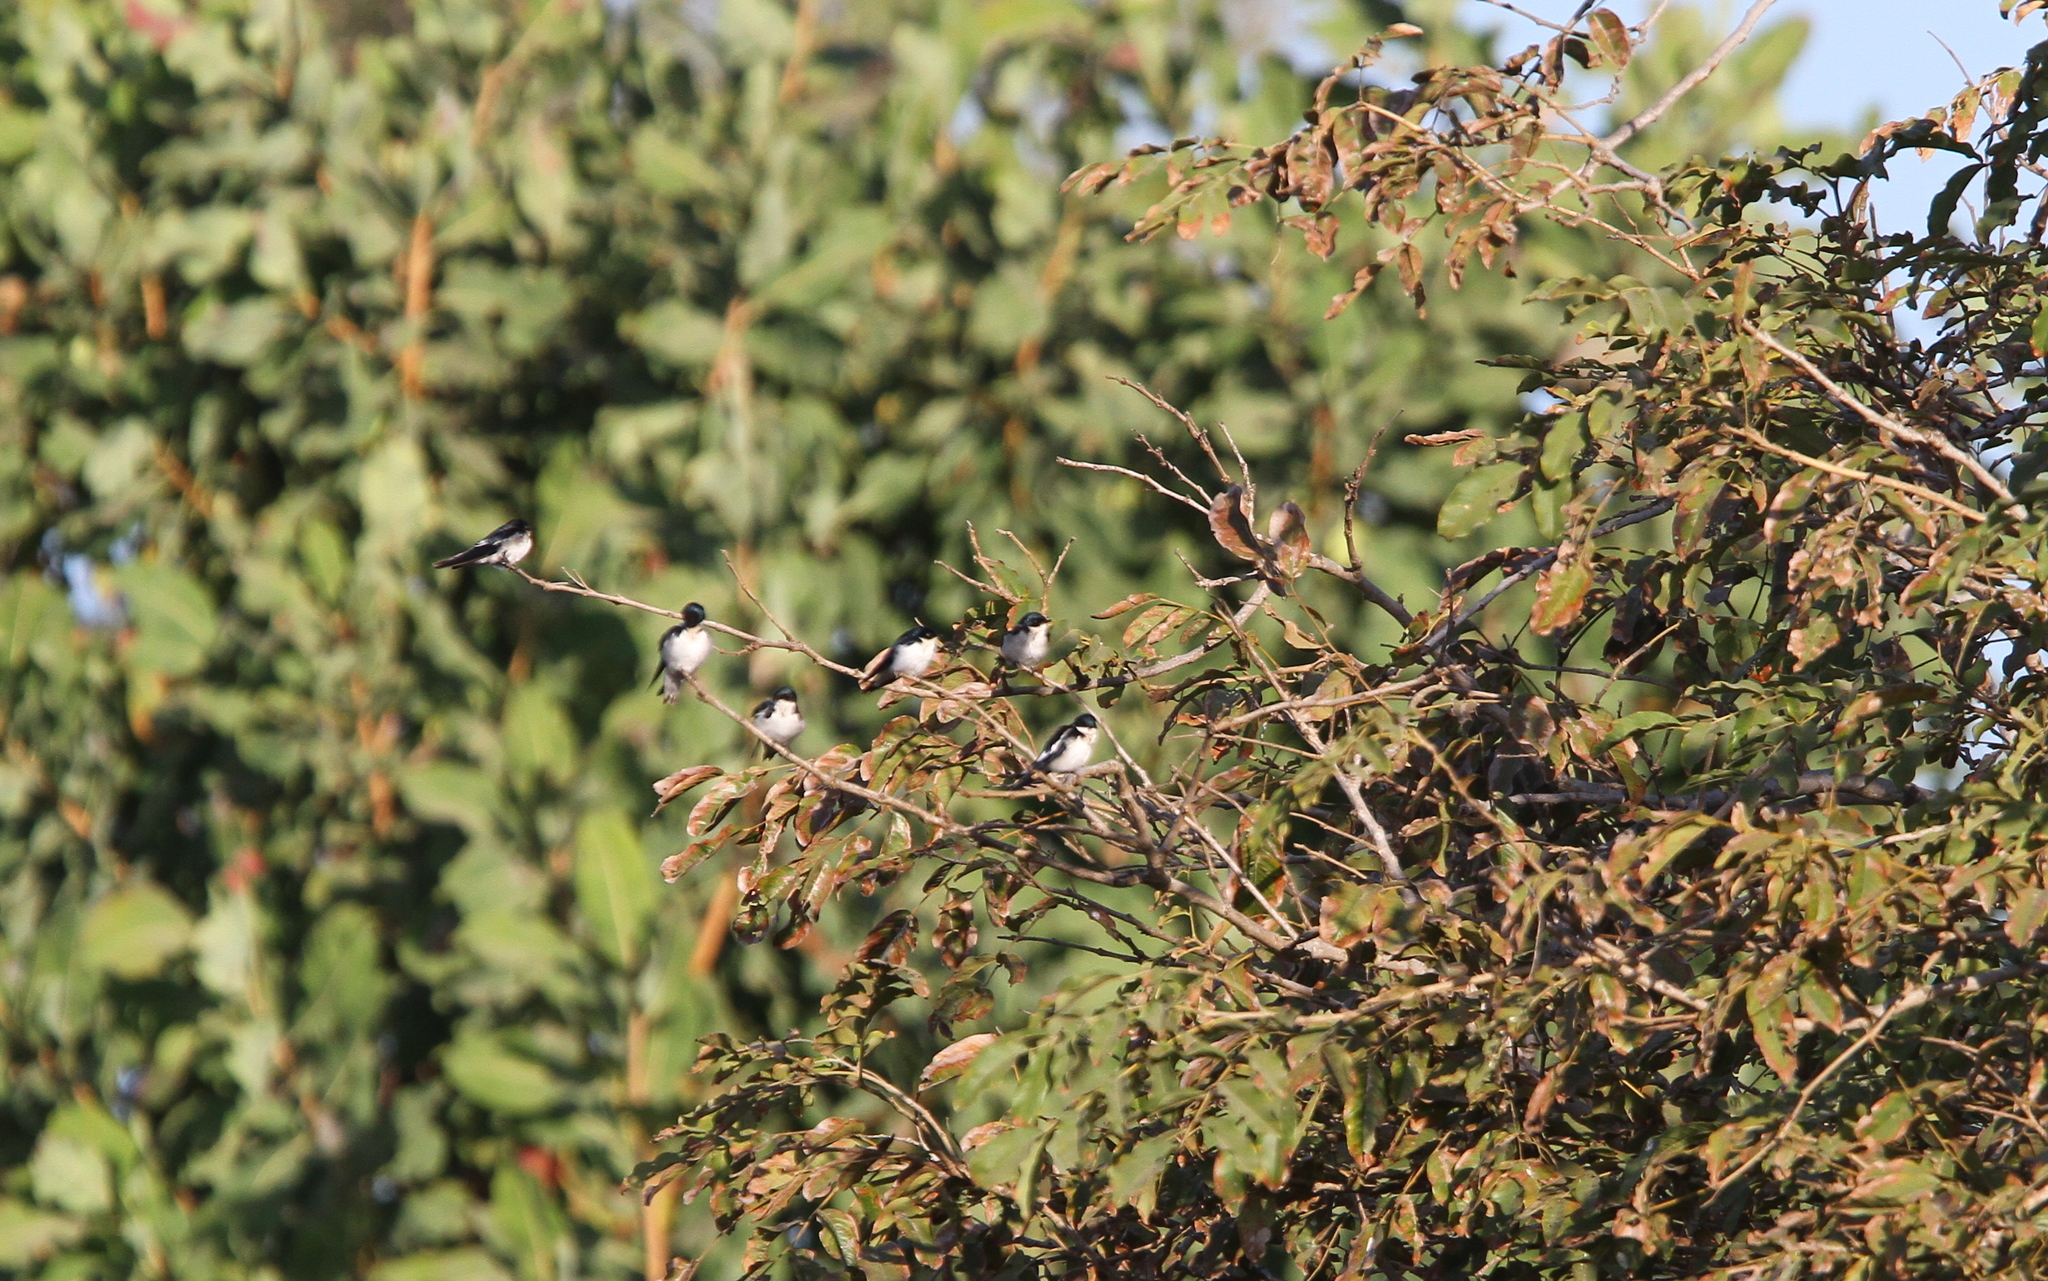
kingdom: Animalia
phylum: Chordata
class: Aves
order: Passeriformes
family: Hirundinidae
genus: Hirundo
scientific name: Hirundo leucosoma
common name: Pied-winged swallow
